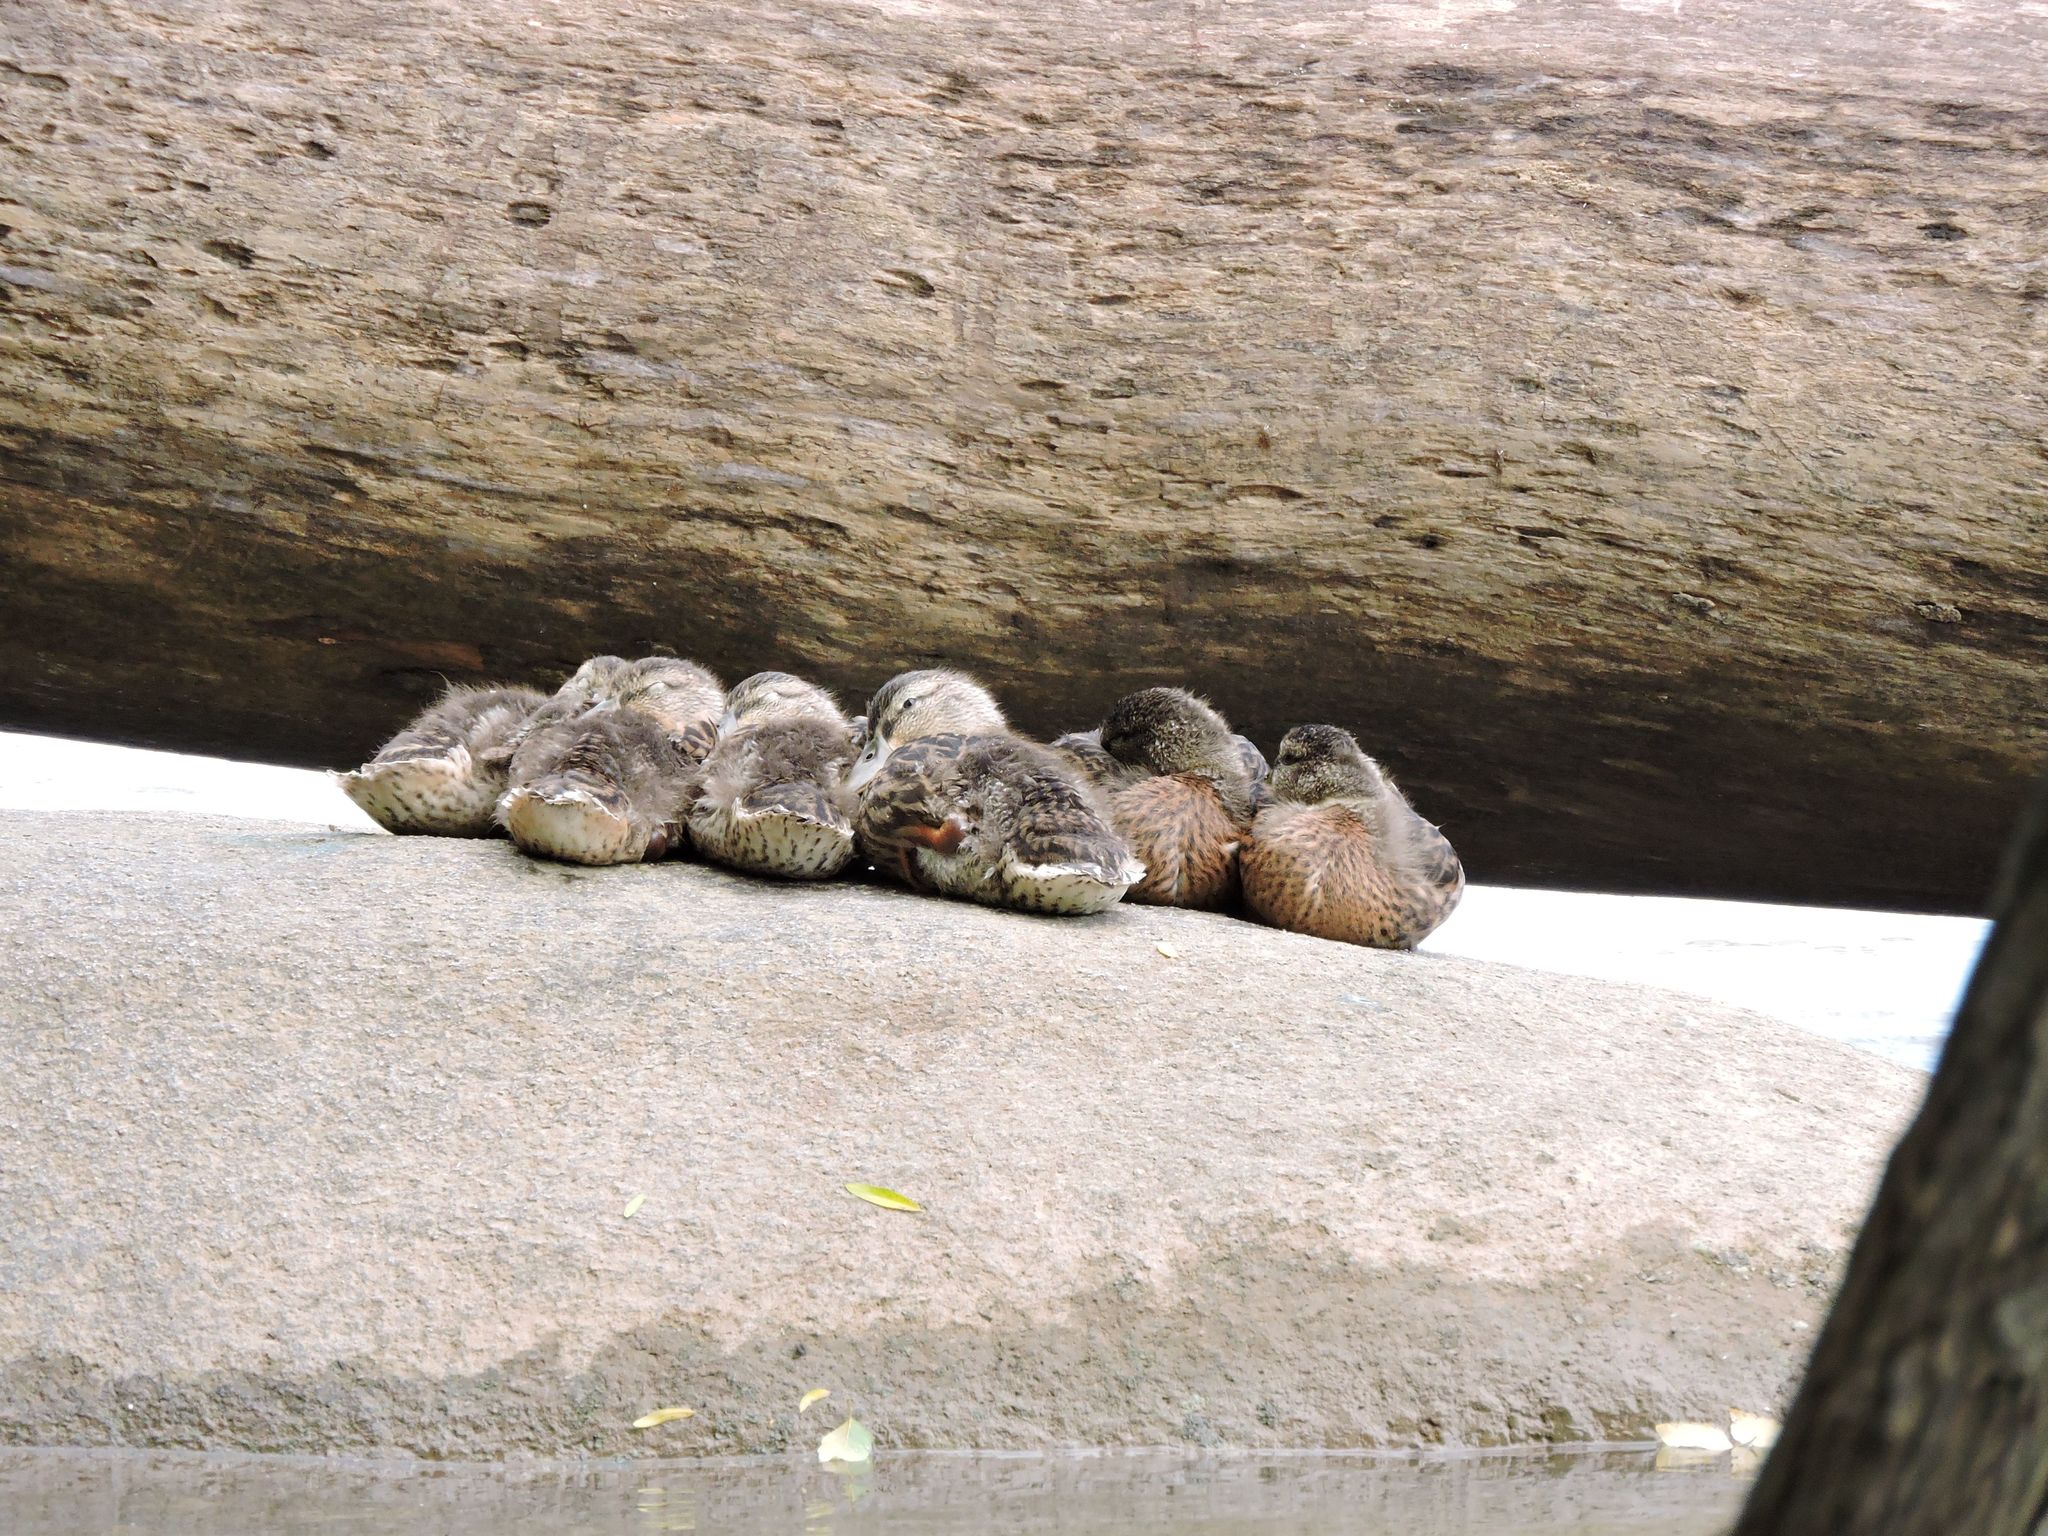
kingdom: Animalia
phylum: Chordata
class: Aves
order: Anseriformes
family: Anatidae
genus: Anas
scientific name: Anas platyrhynchos
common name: Mallard
